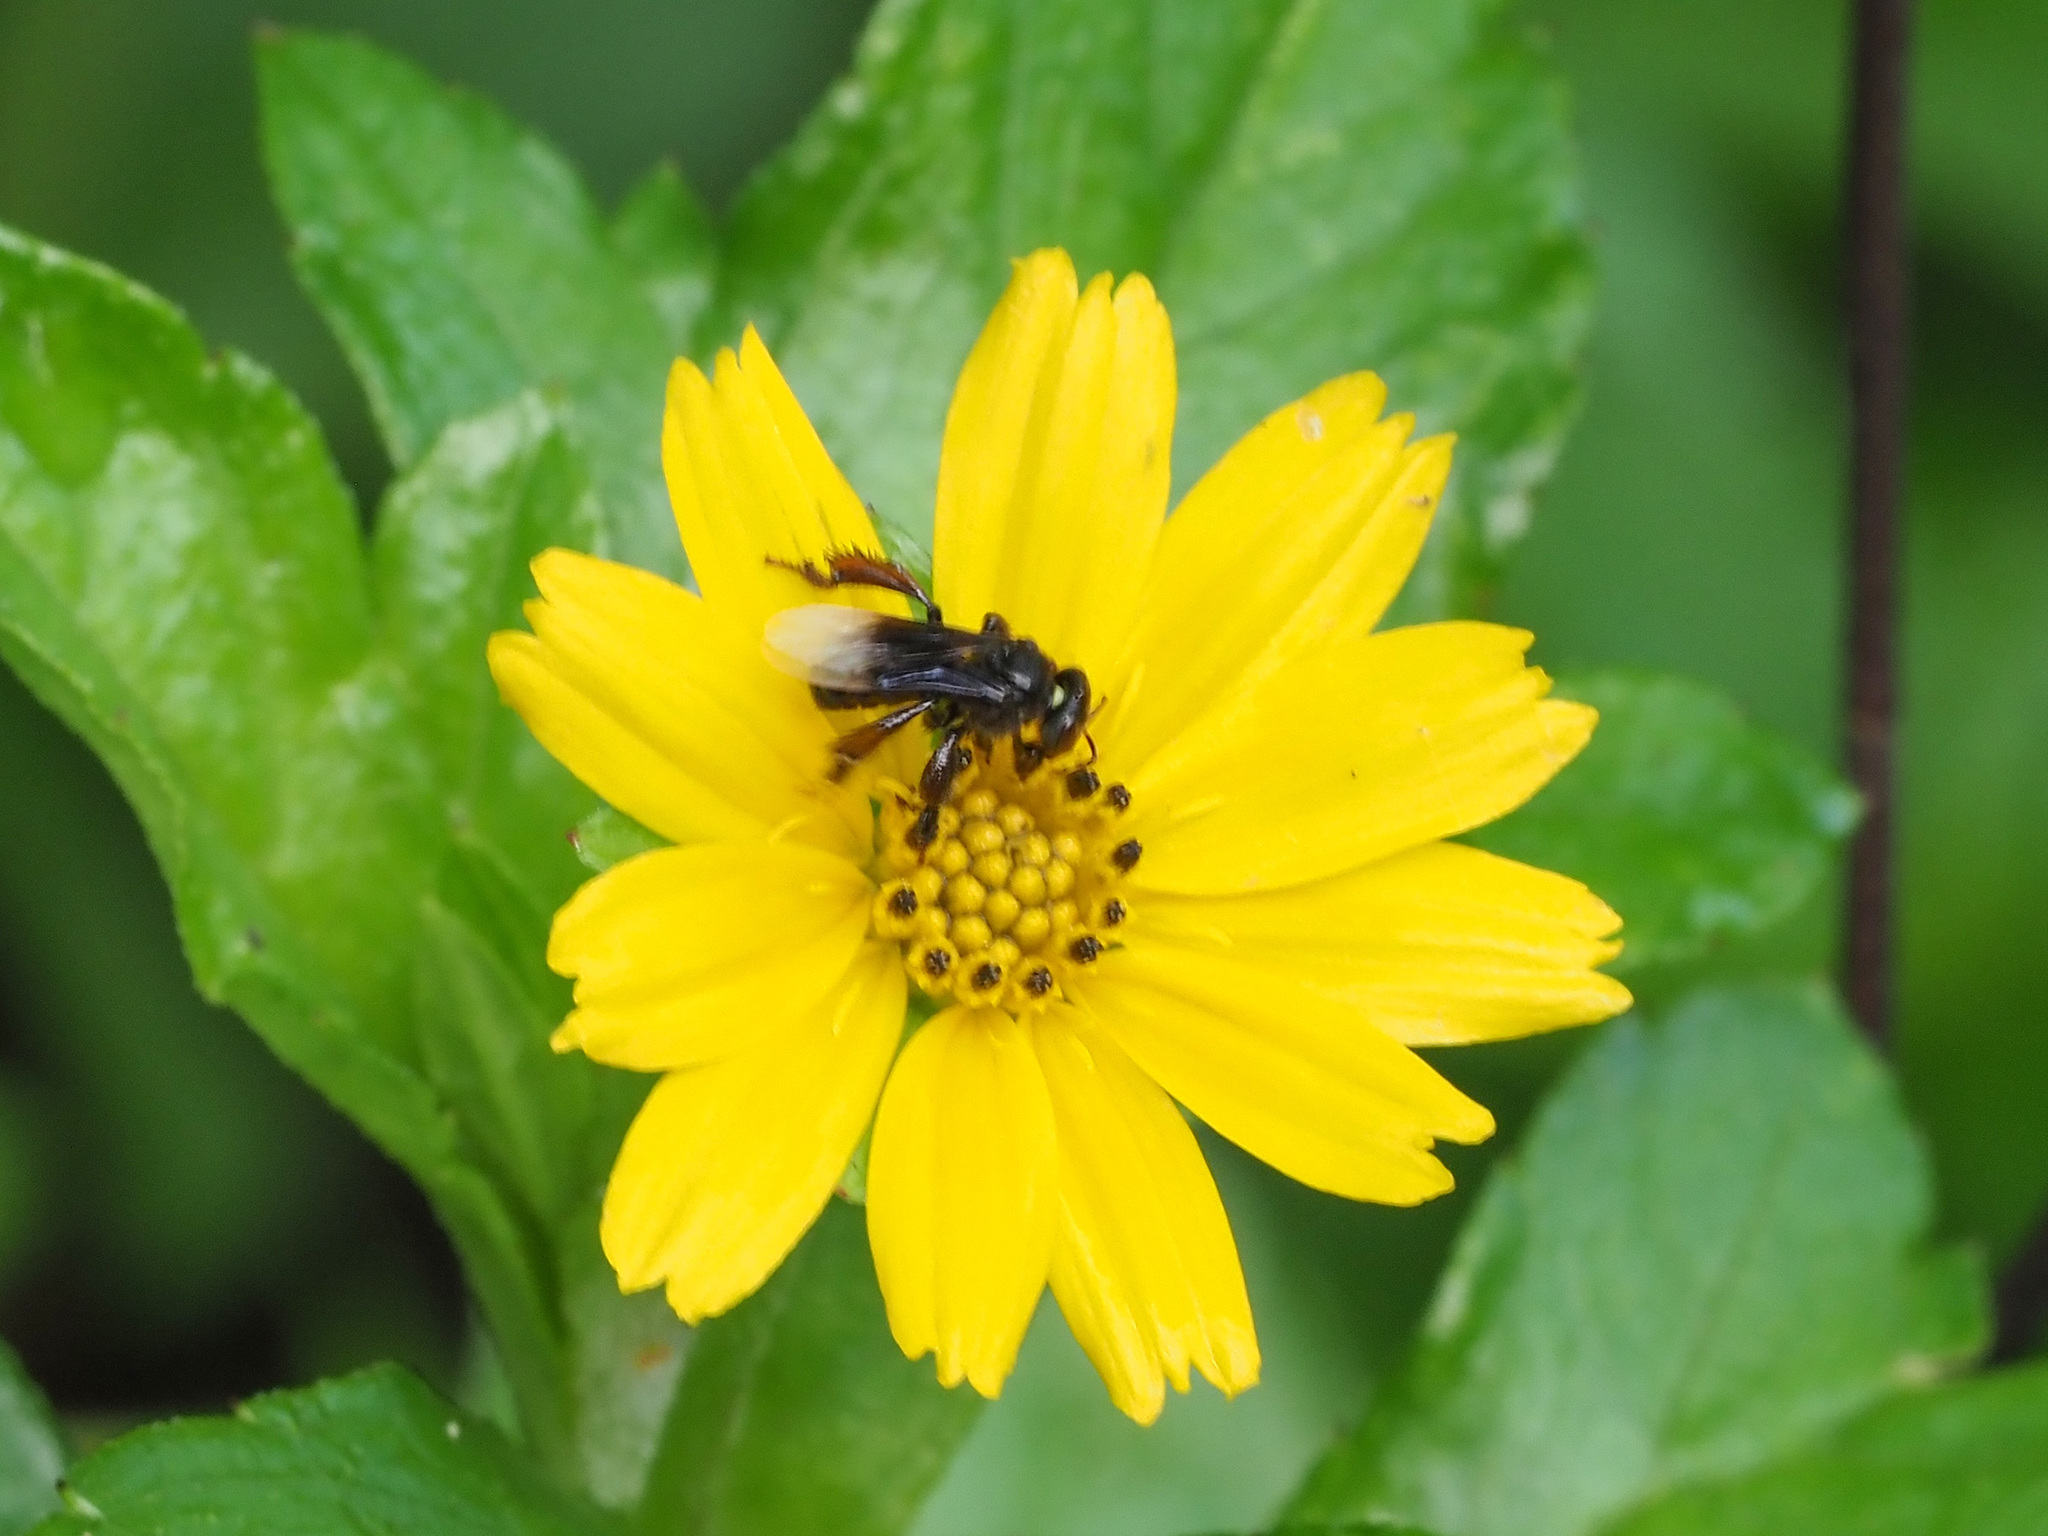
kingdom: Animalia
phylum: Arthropoda
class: Insecta
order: Hymenoptera
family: Apidae
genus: Homotrigona
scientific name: Homotrigona melanoleuca
